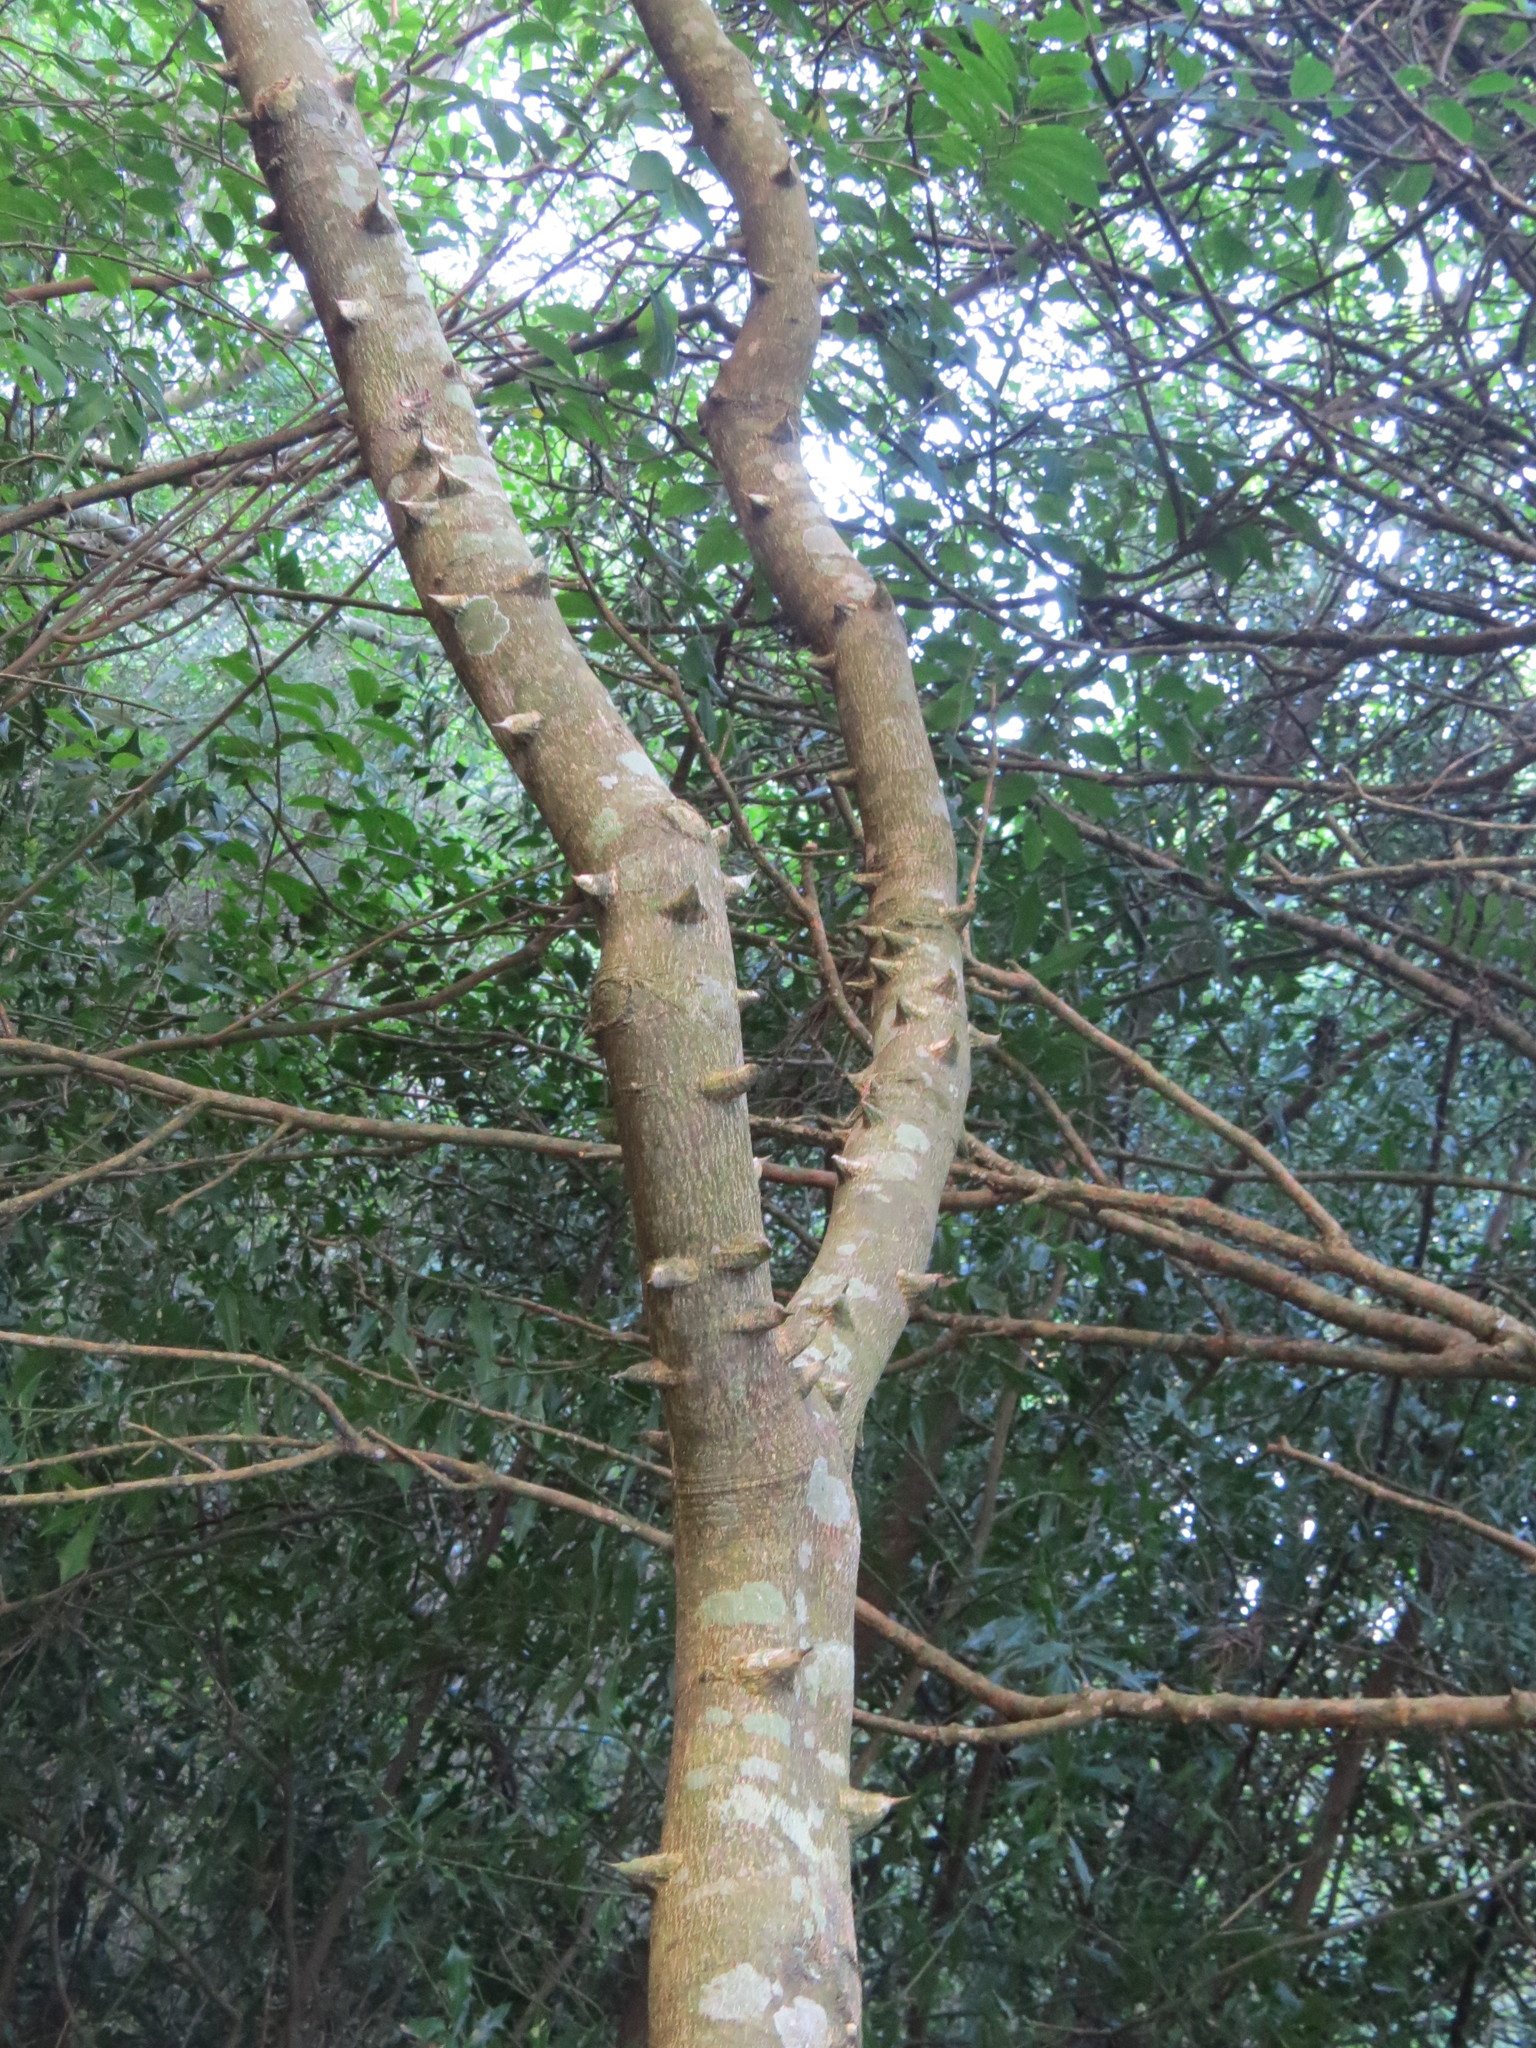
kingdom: Plantae
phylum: Tracheophyta
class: Magnoliopsida
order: Sapindales
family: Rutaceae
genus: Zanthoxylum
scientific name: Zanthoxylum rhoifolium
